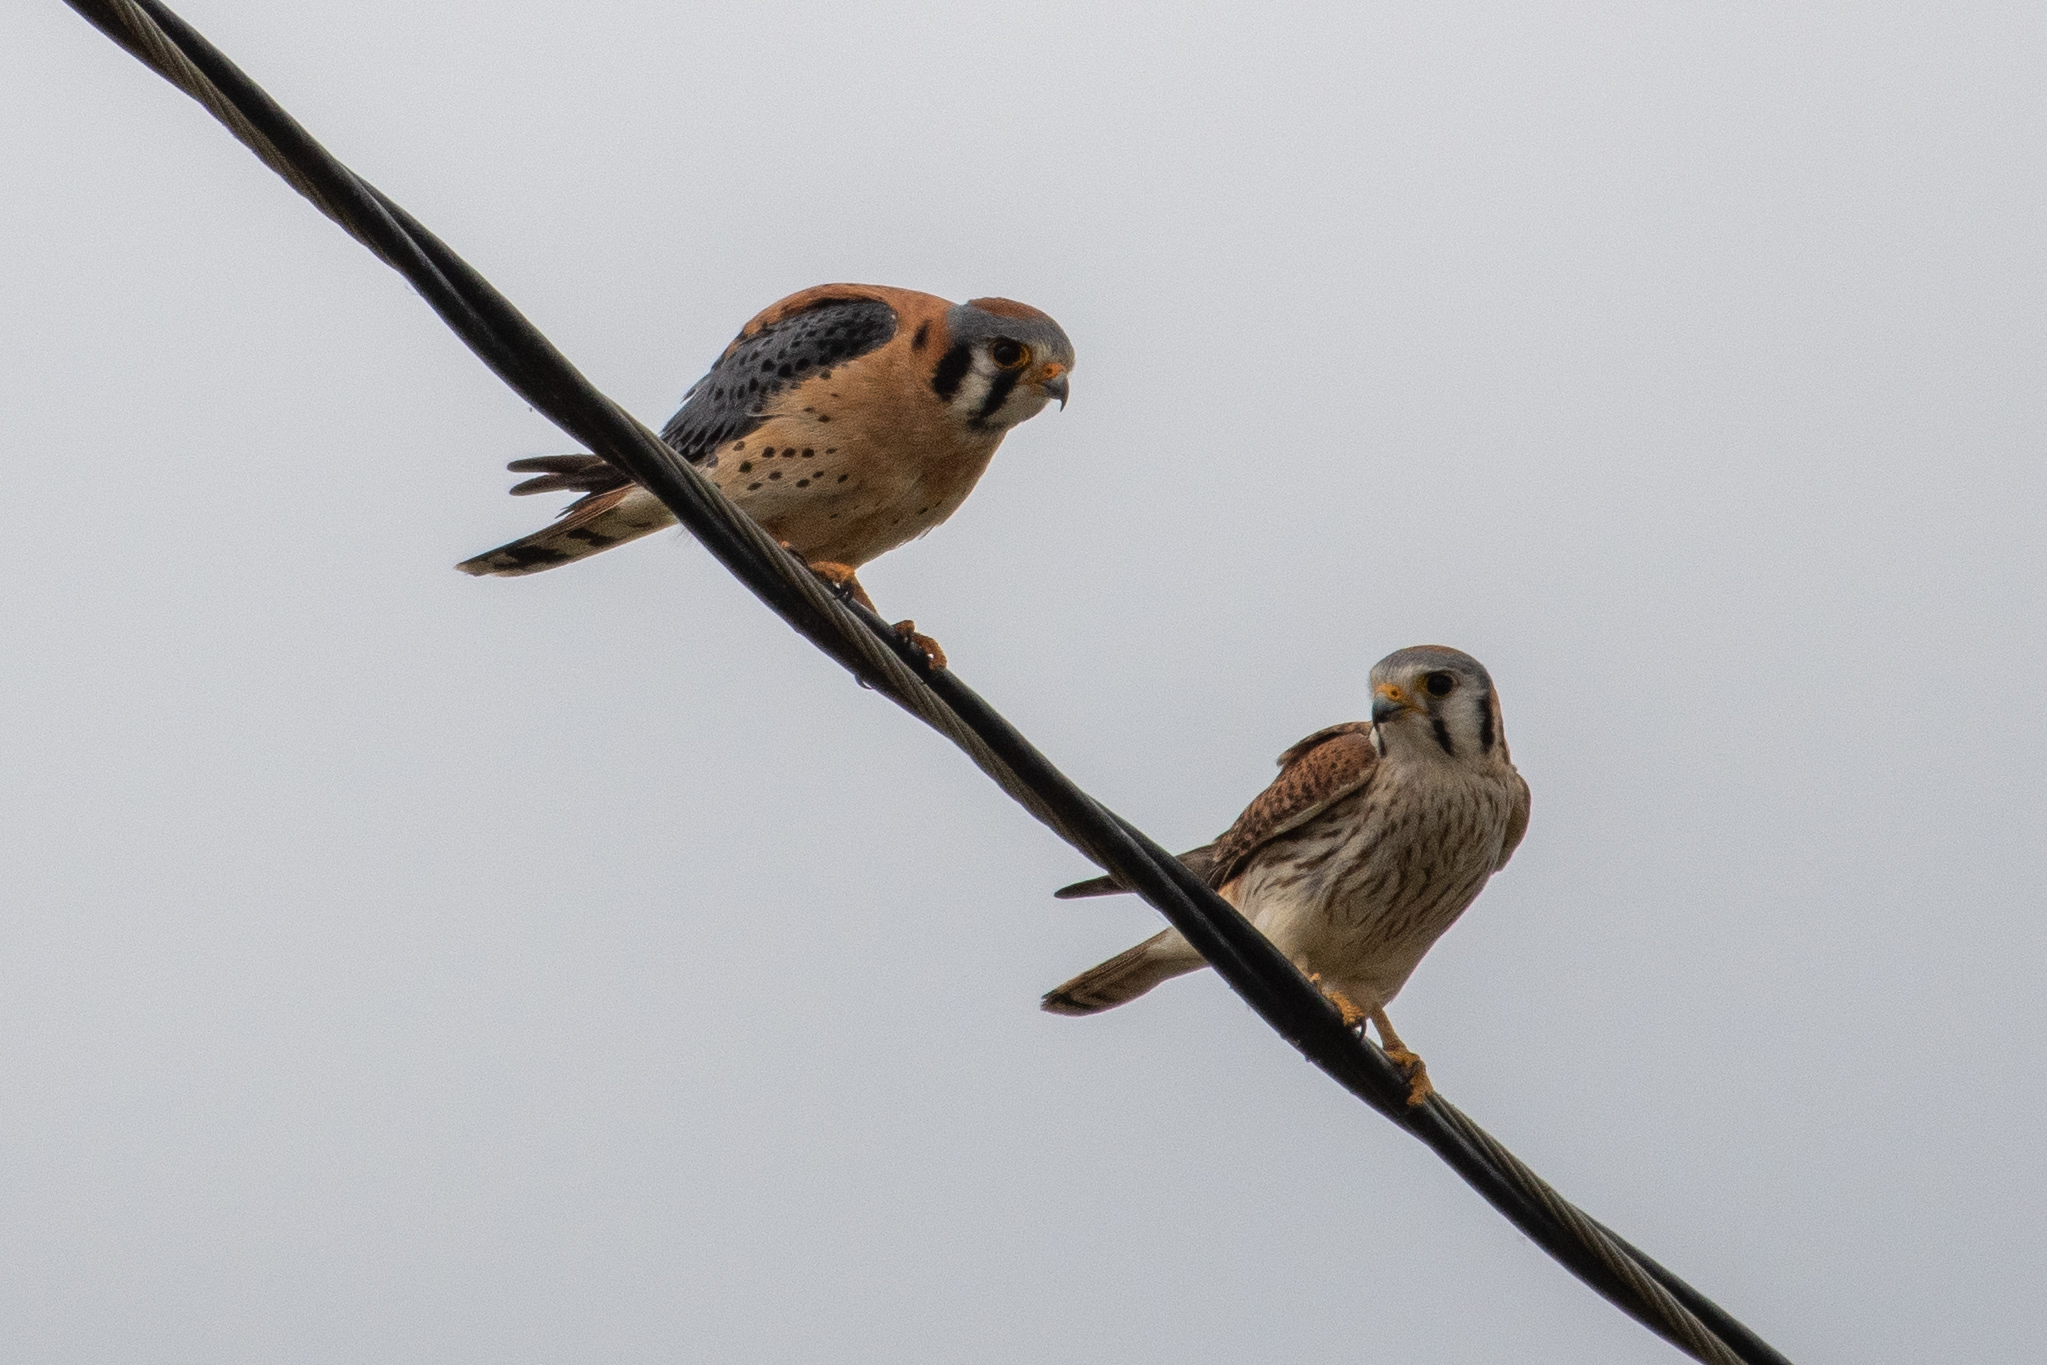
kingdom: Animalia
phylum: Chordata
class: Aves
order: Falconiformes
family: Falconidae
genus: Falco
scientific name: Falco sparverius
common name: American kestrel
